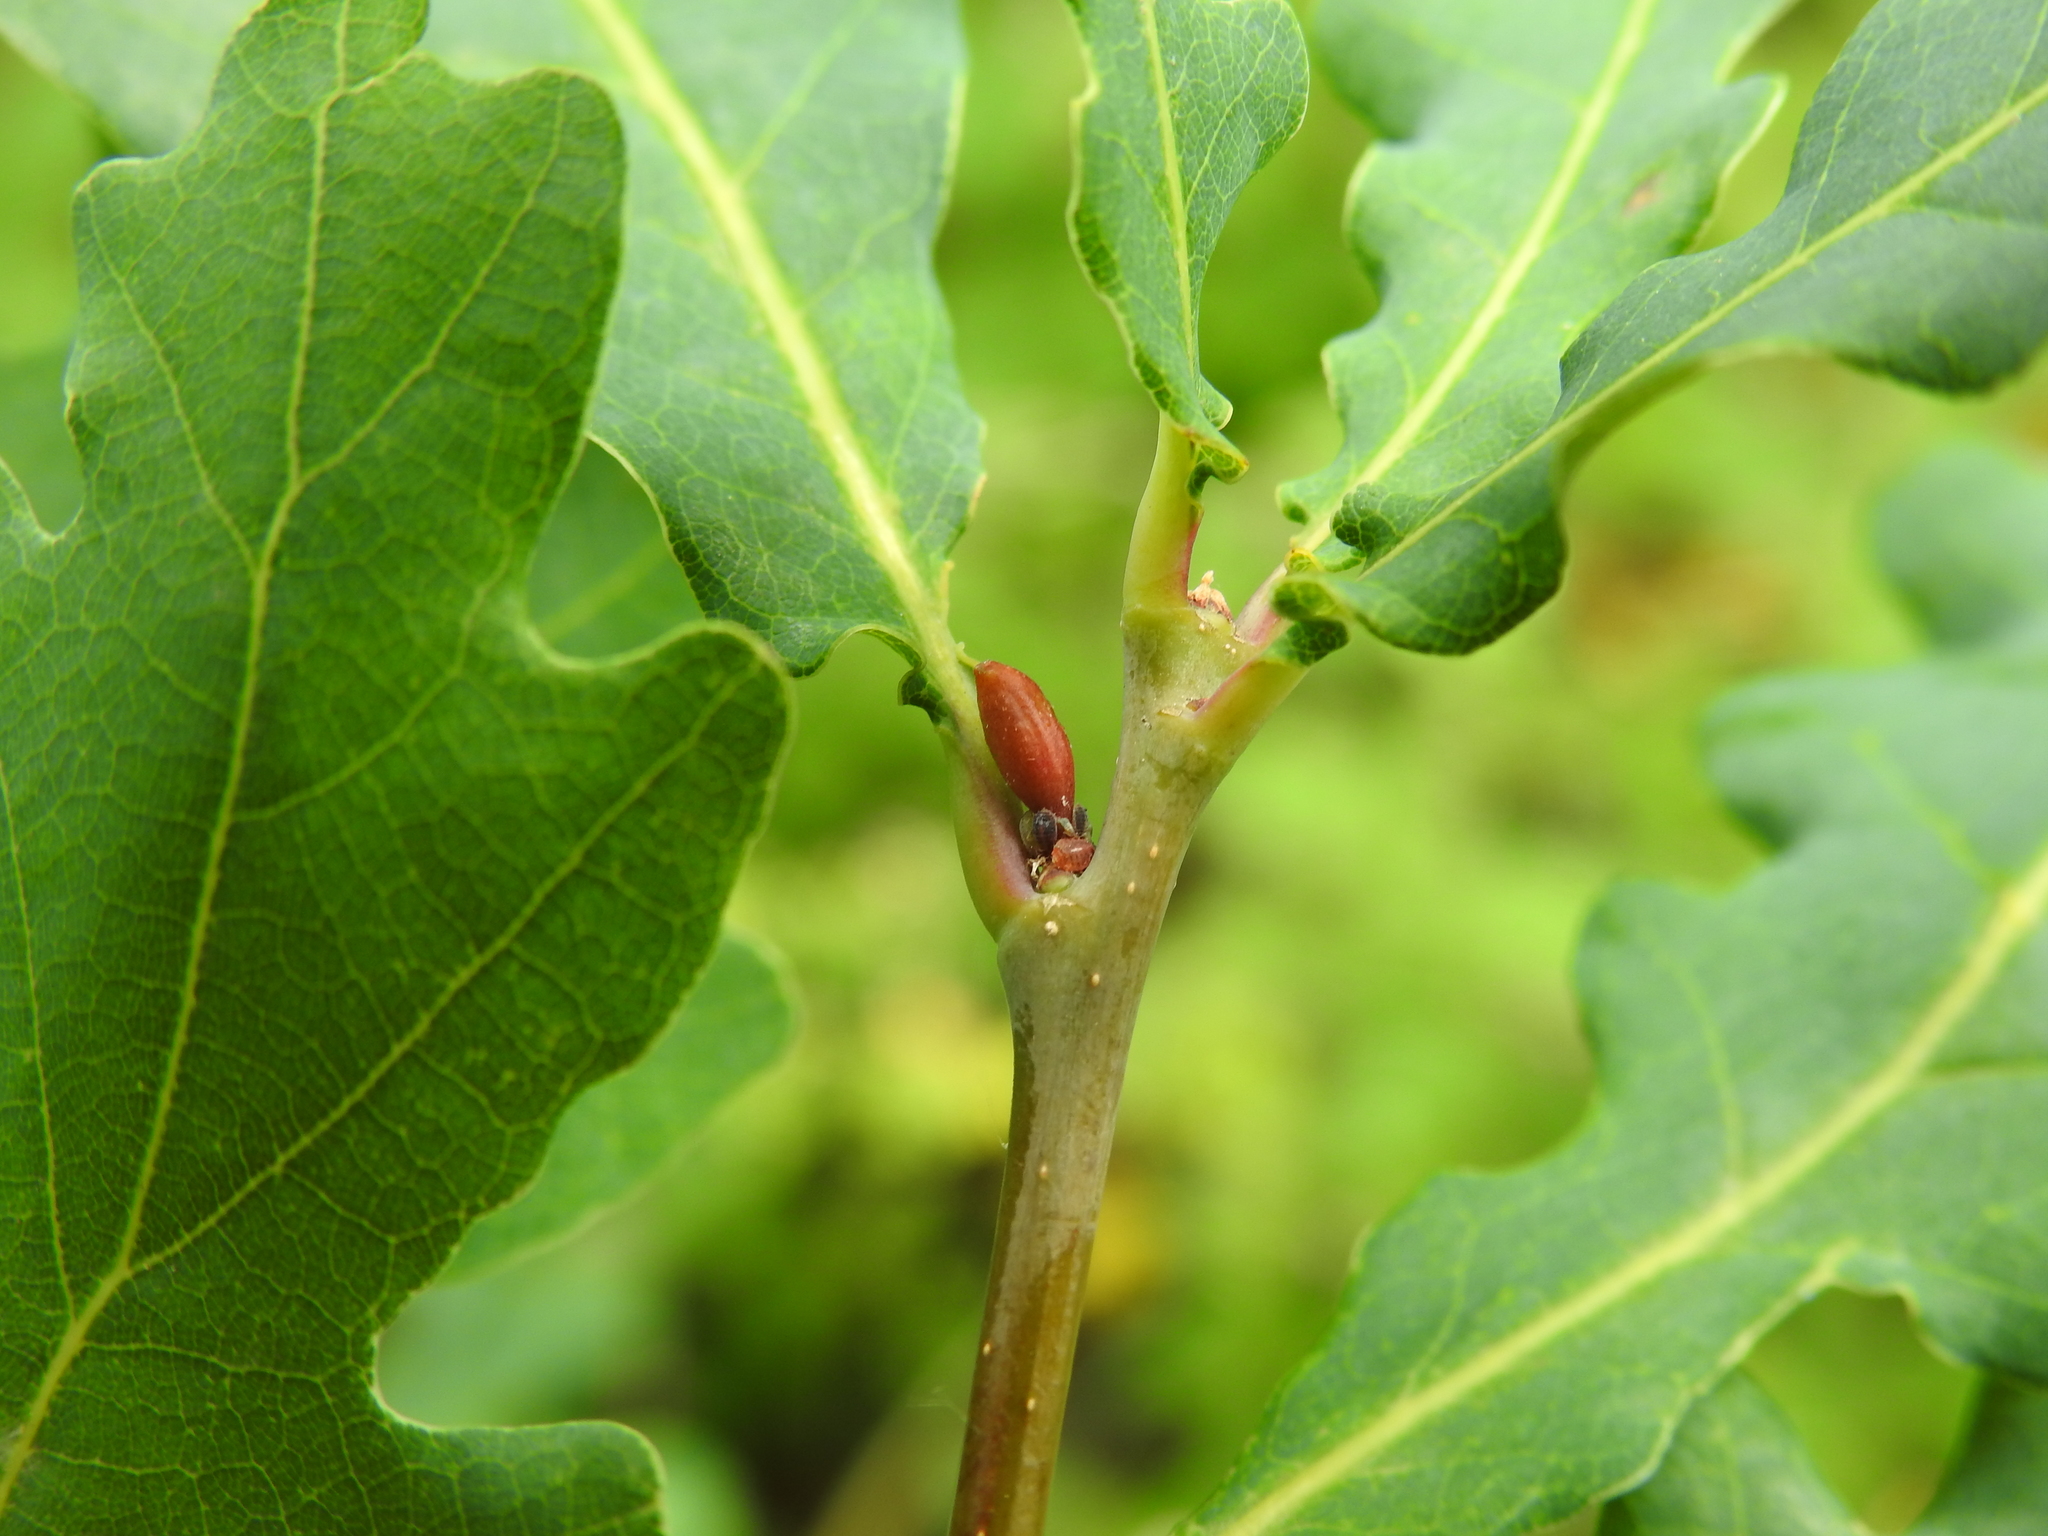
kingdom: Animalia
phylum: Arthropoda
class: Insecta
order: Hymenoptera
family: Cynipidae
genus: Andricus
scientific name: Andricus callidoma
